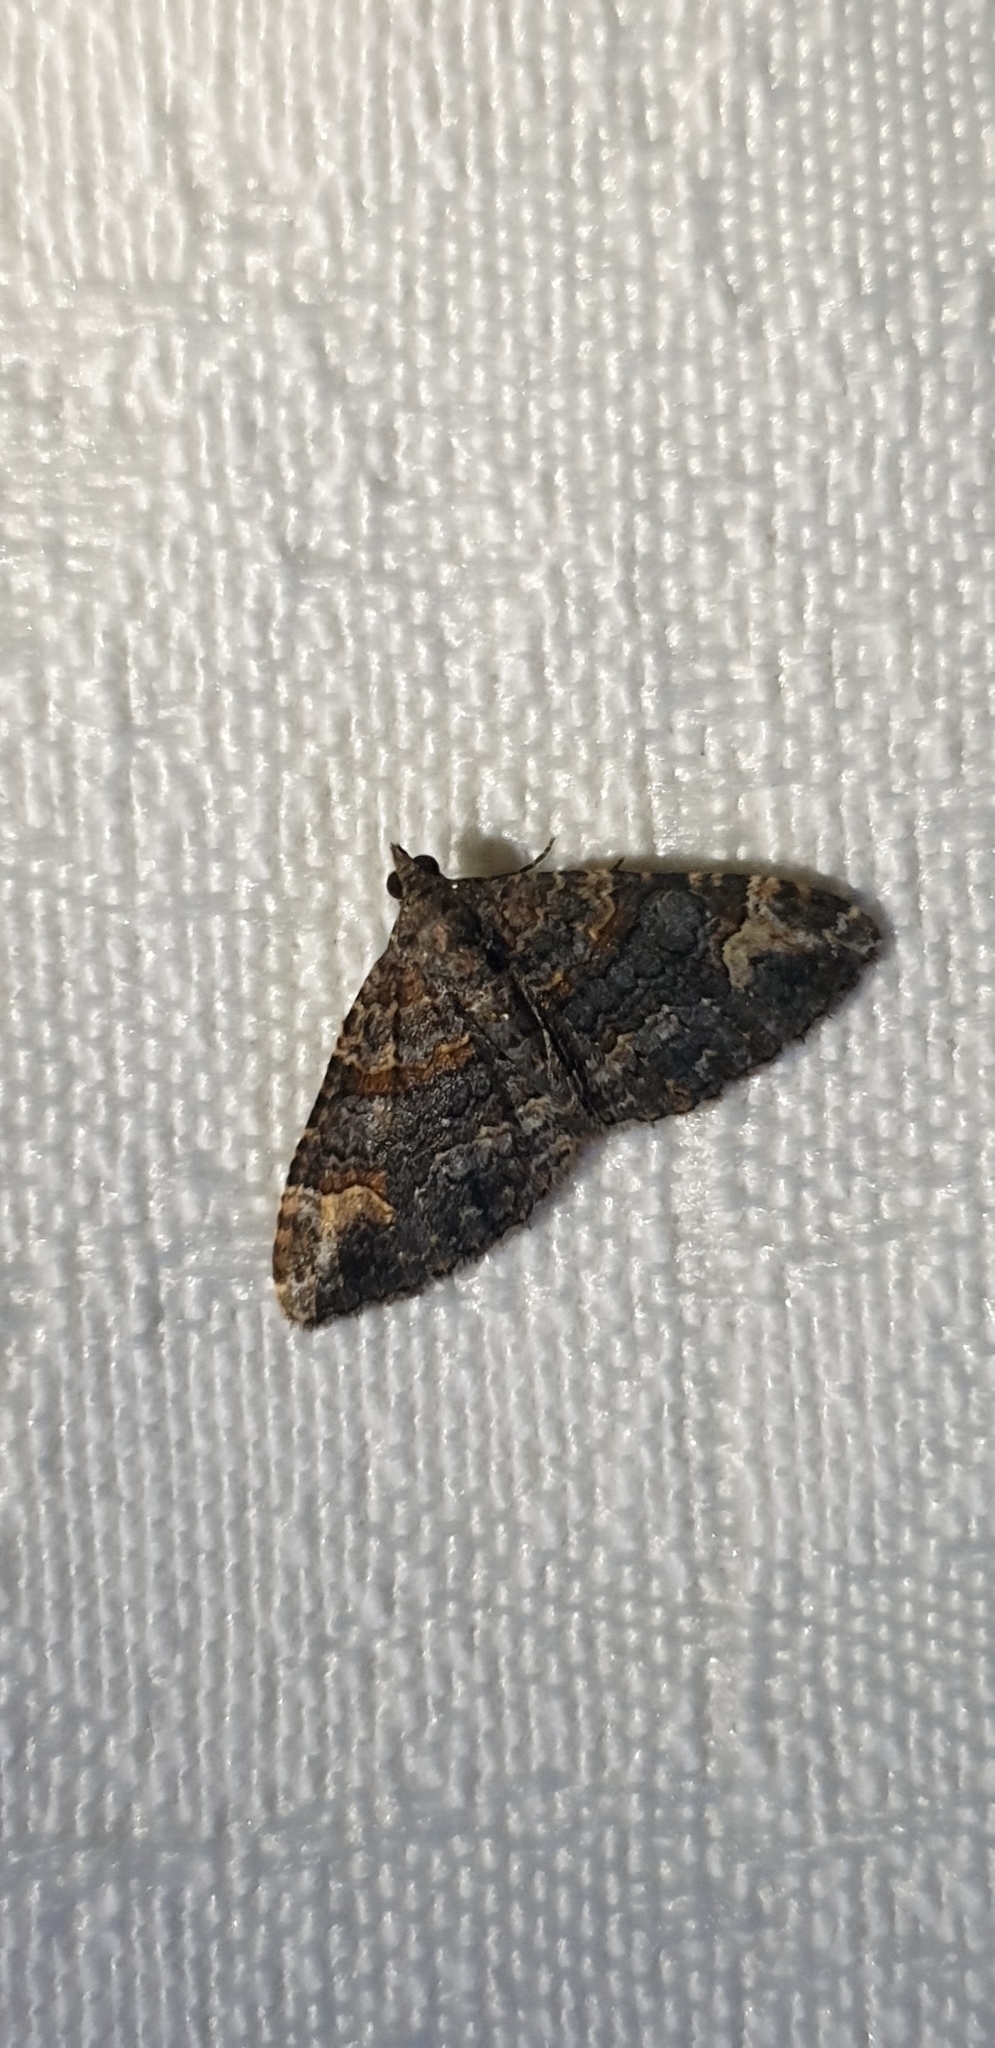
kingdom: Animalia
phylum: Arthropoda
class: Insecta
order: Lepidoptera
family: Geometridae
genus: Epyaxa
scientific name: Epyaxa sodaliata
